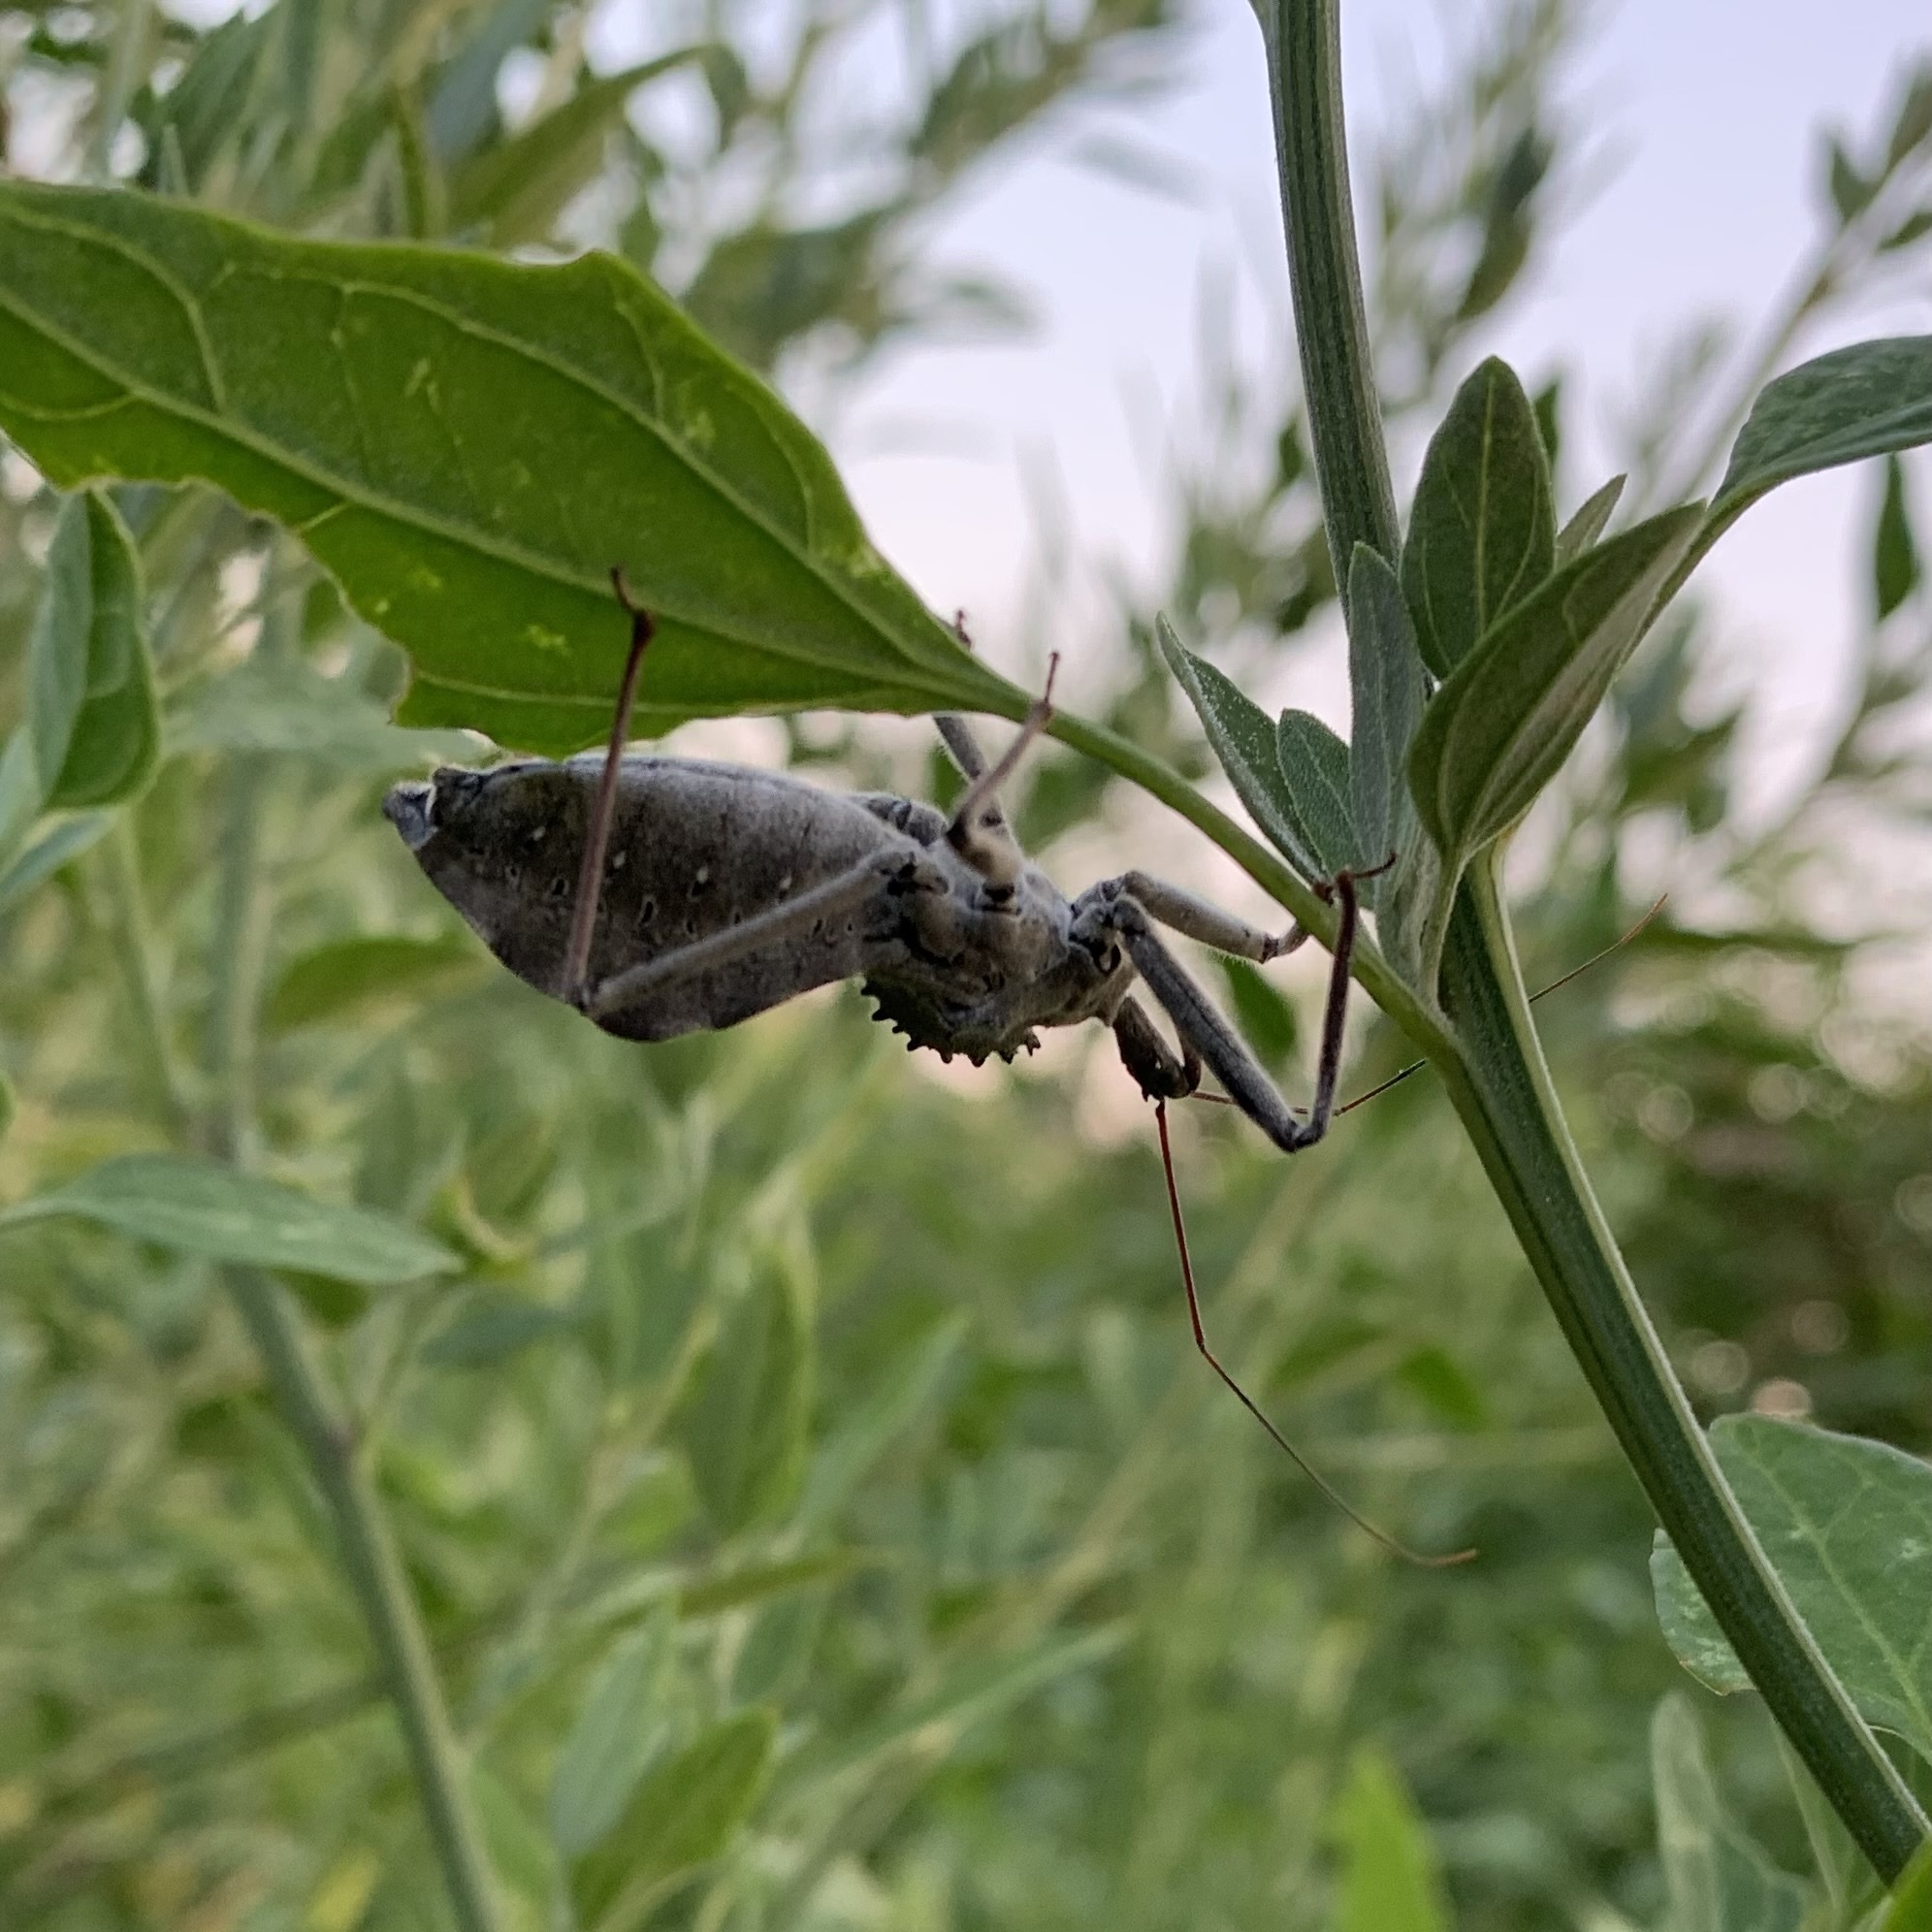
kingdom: Animalia
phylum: Arthropoda
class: Insecta
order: Hemiptera
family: Reduviidae
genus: Arilus
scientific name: Arilus cristatus
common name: North american wheel bug
